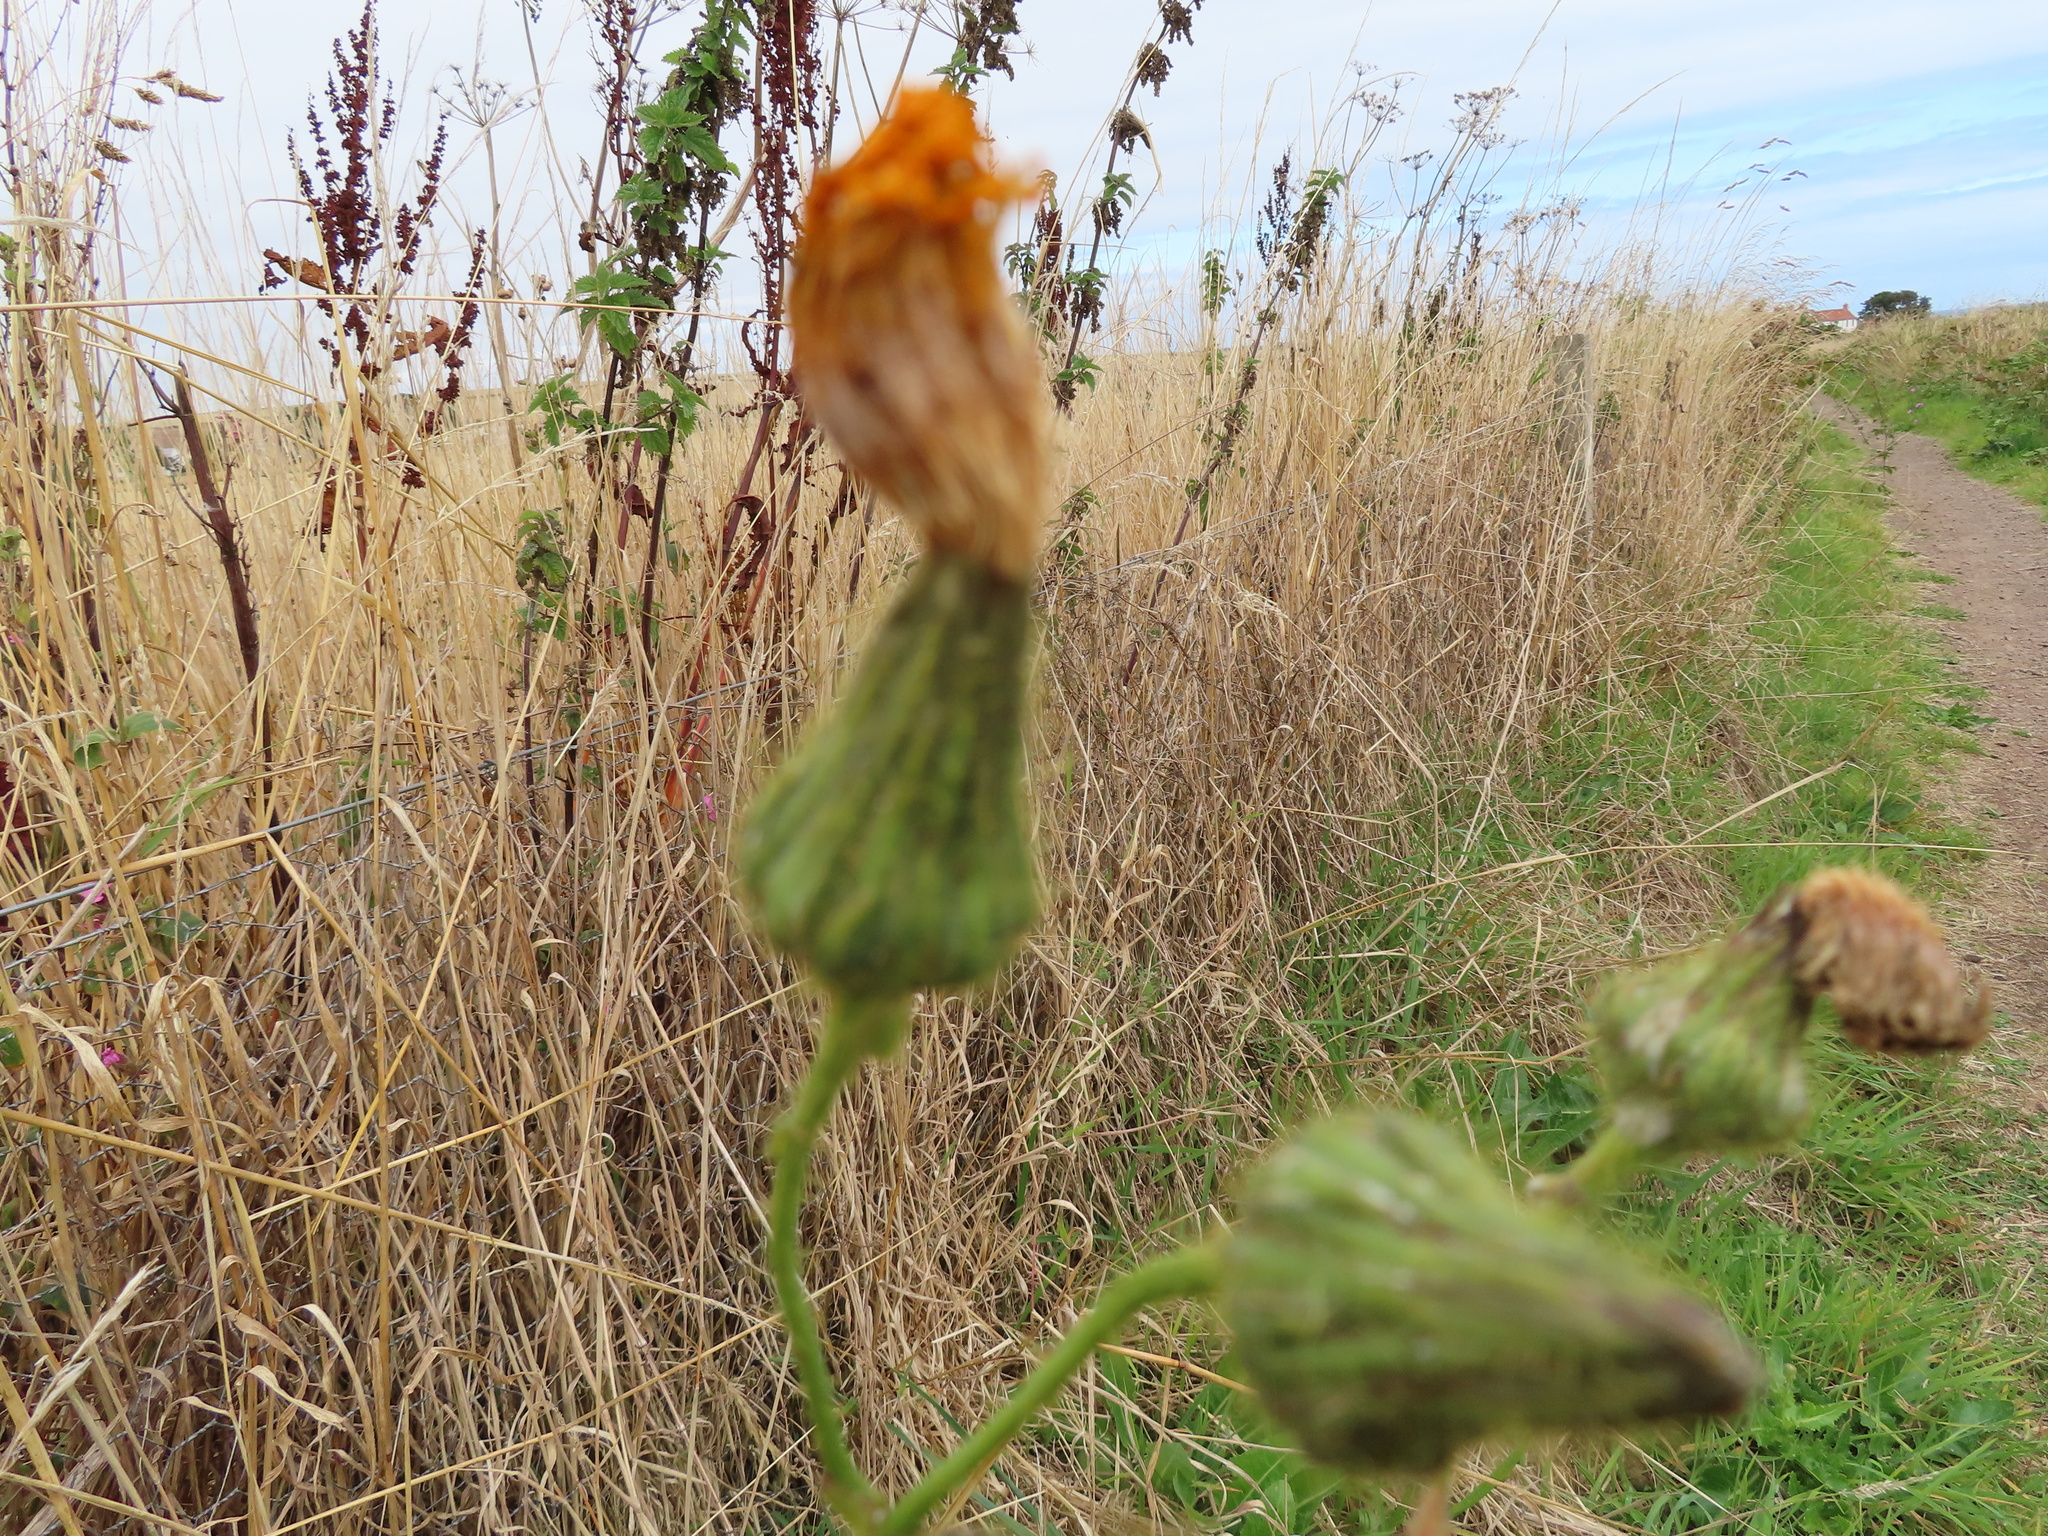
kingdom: Plantae
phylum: Tracheophyta
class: Magnoliopsida
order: Asterales
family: Asteraceae
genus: Sonchus
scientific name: Sonchus arvensis
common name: Perennial sow-thistle
